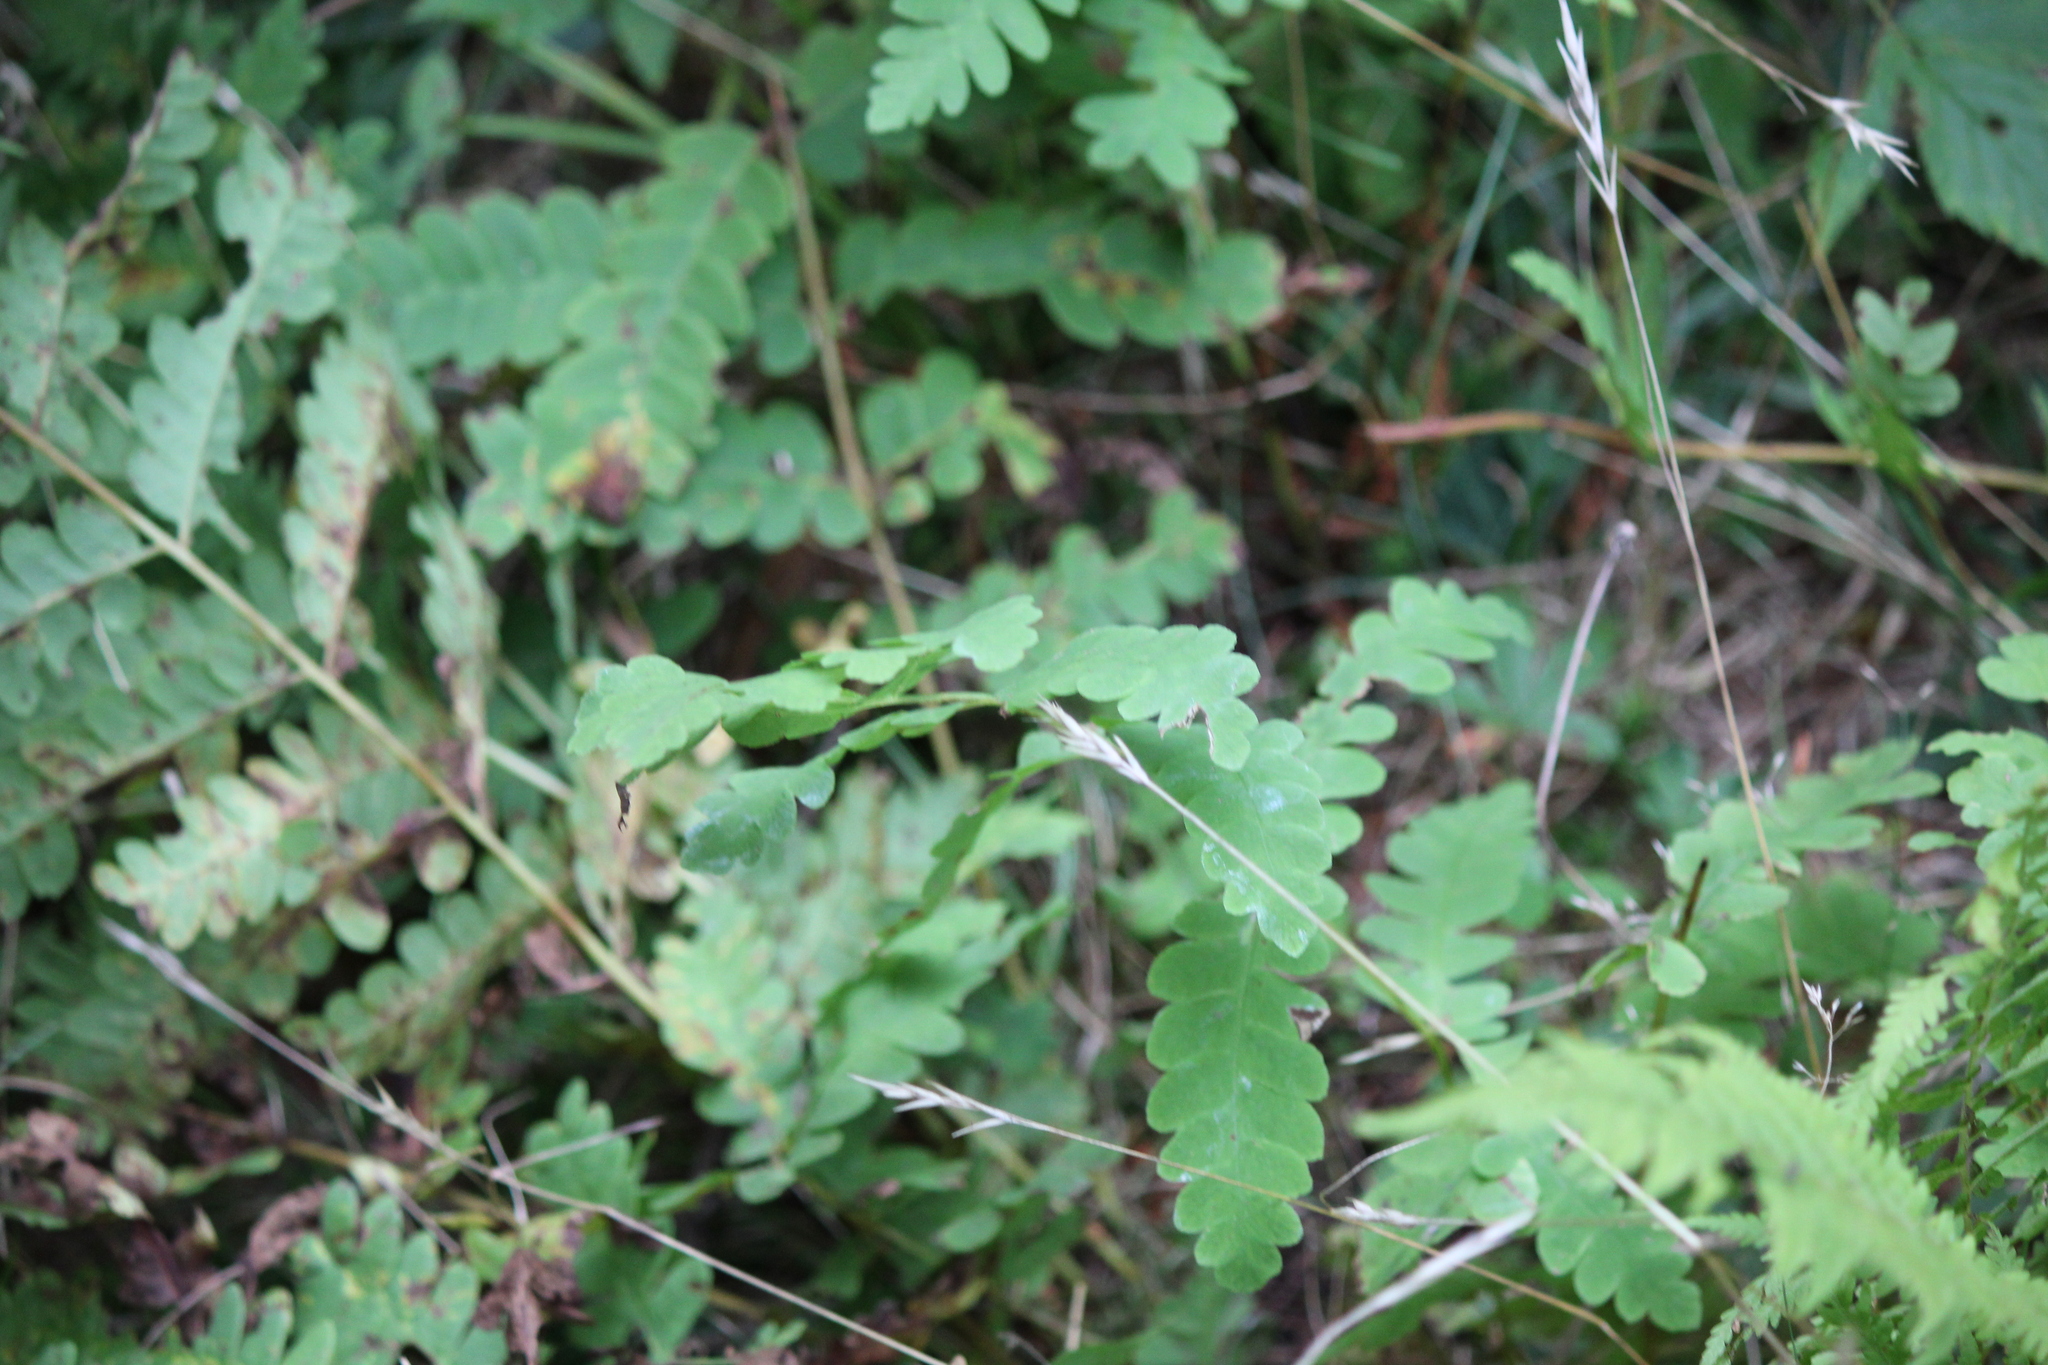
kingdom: Plantae
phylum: Tracheophyta
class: Polypodiopsida
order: Osmundales
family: Osmundaceae
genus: Claytosmunda
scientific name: Claytosmunda claytoniana
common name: Clayton's fern
